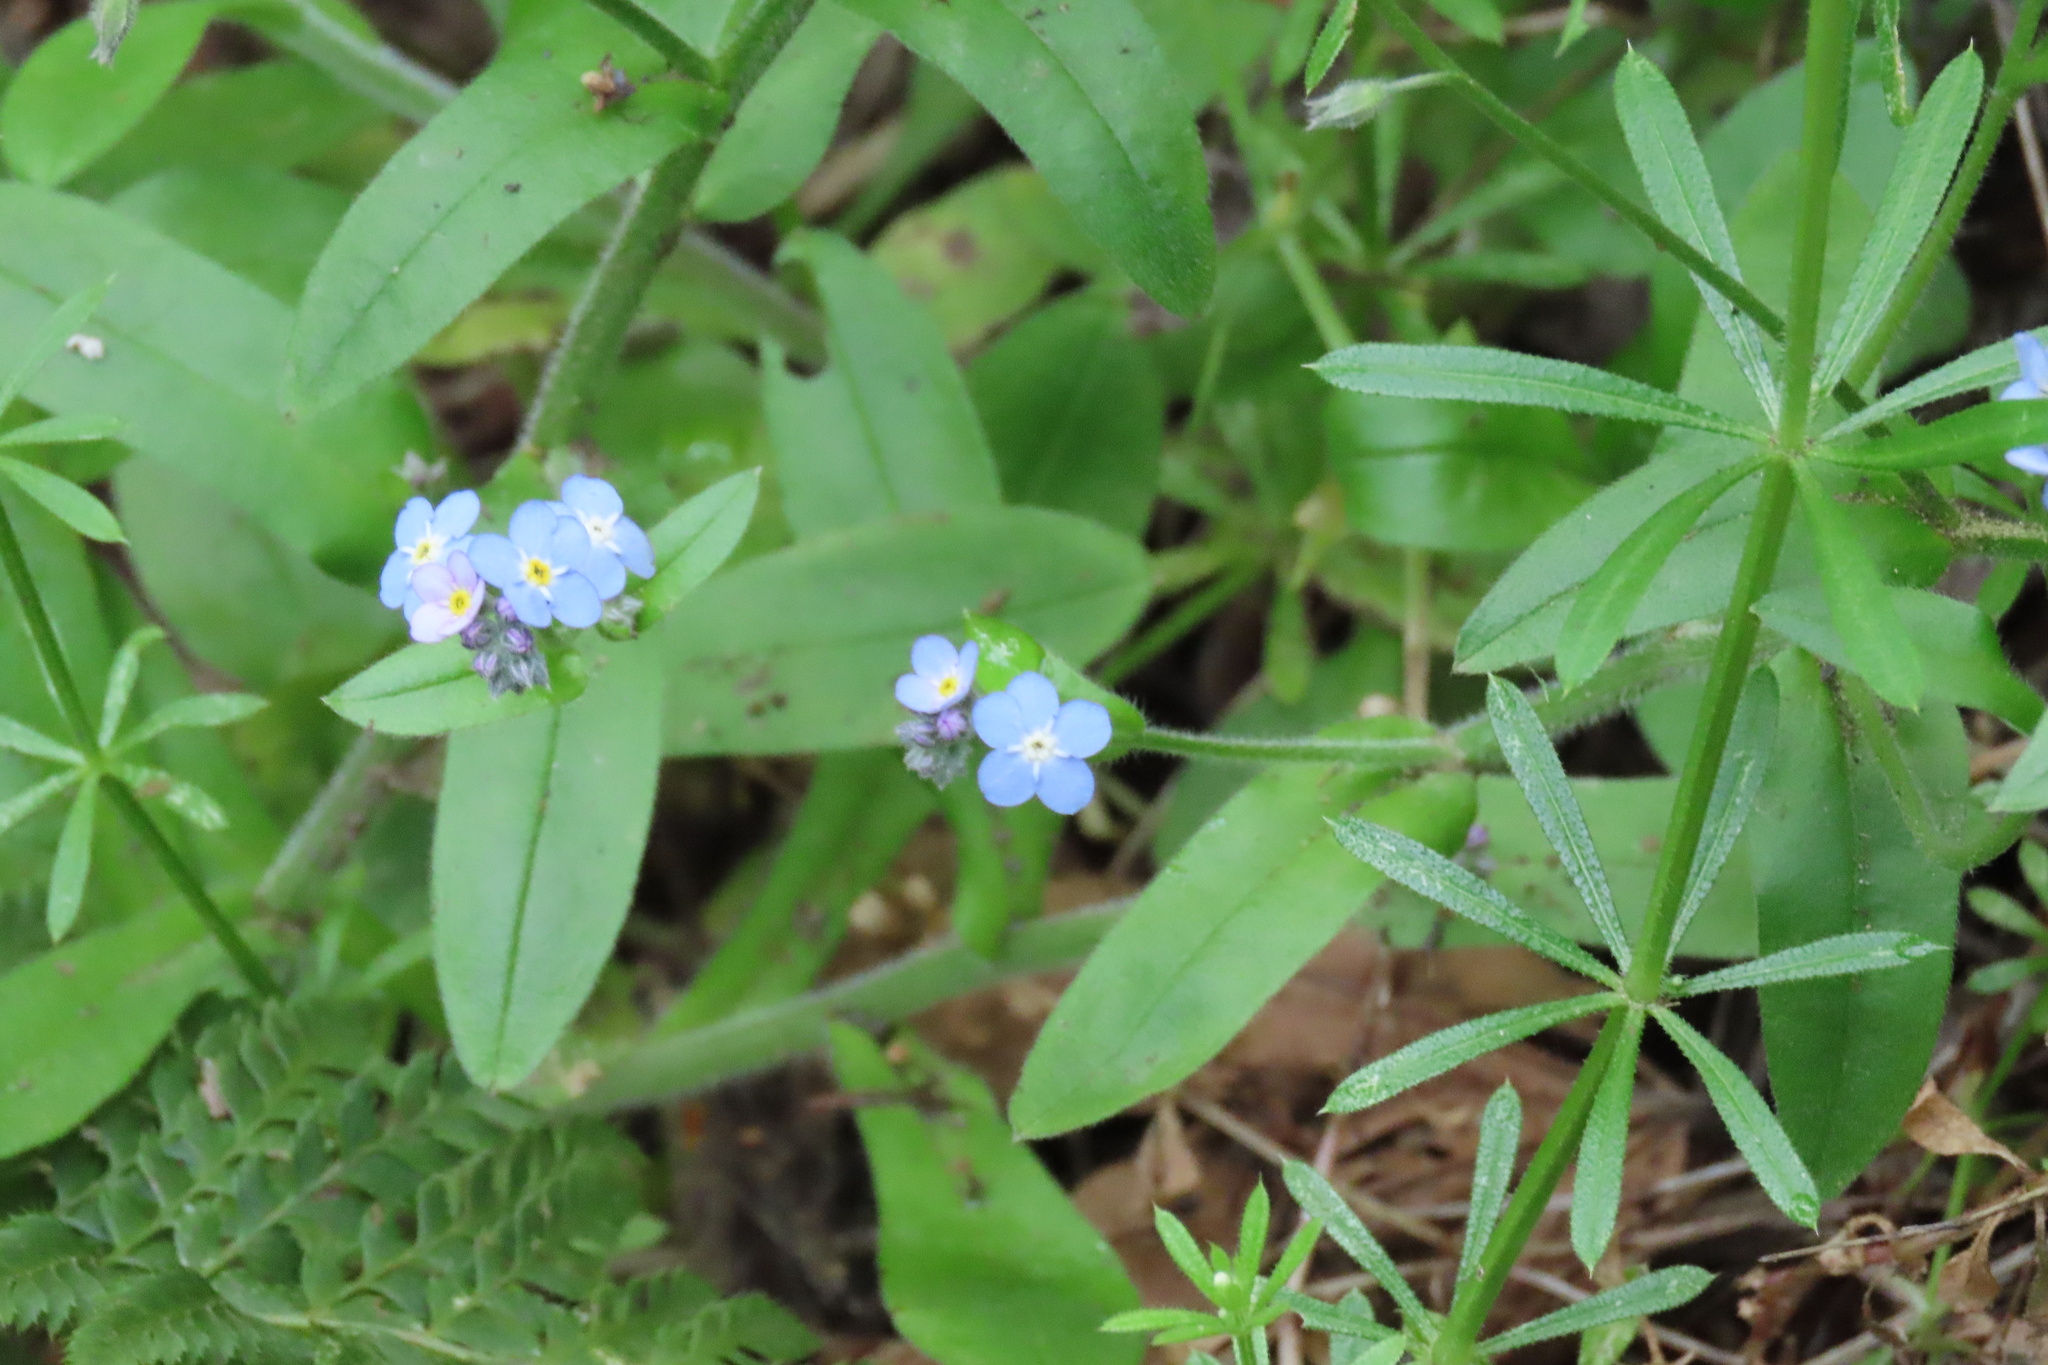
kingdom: Plantae
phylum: Tracheophyta
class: Magnoliopsida
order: Boraginales
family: Boraginaceae
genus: Myosotis
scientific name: Myosotis latifolia
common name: Broadleaf forget-me-not
